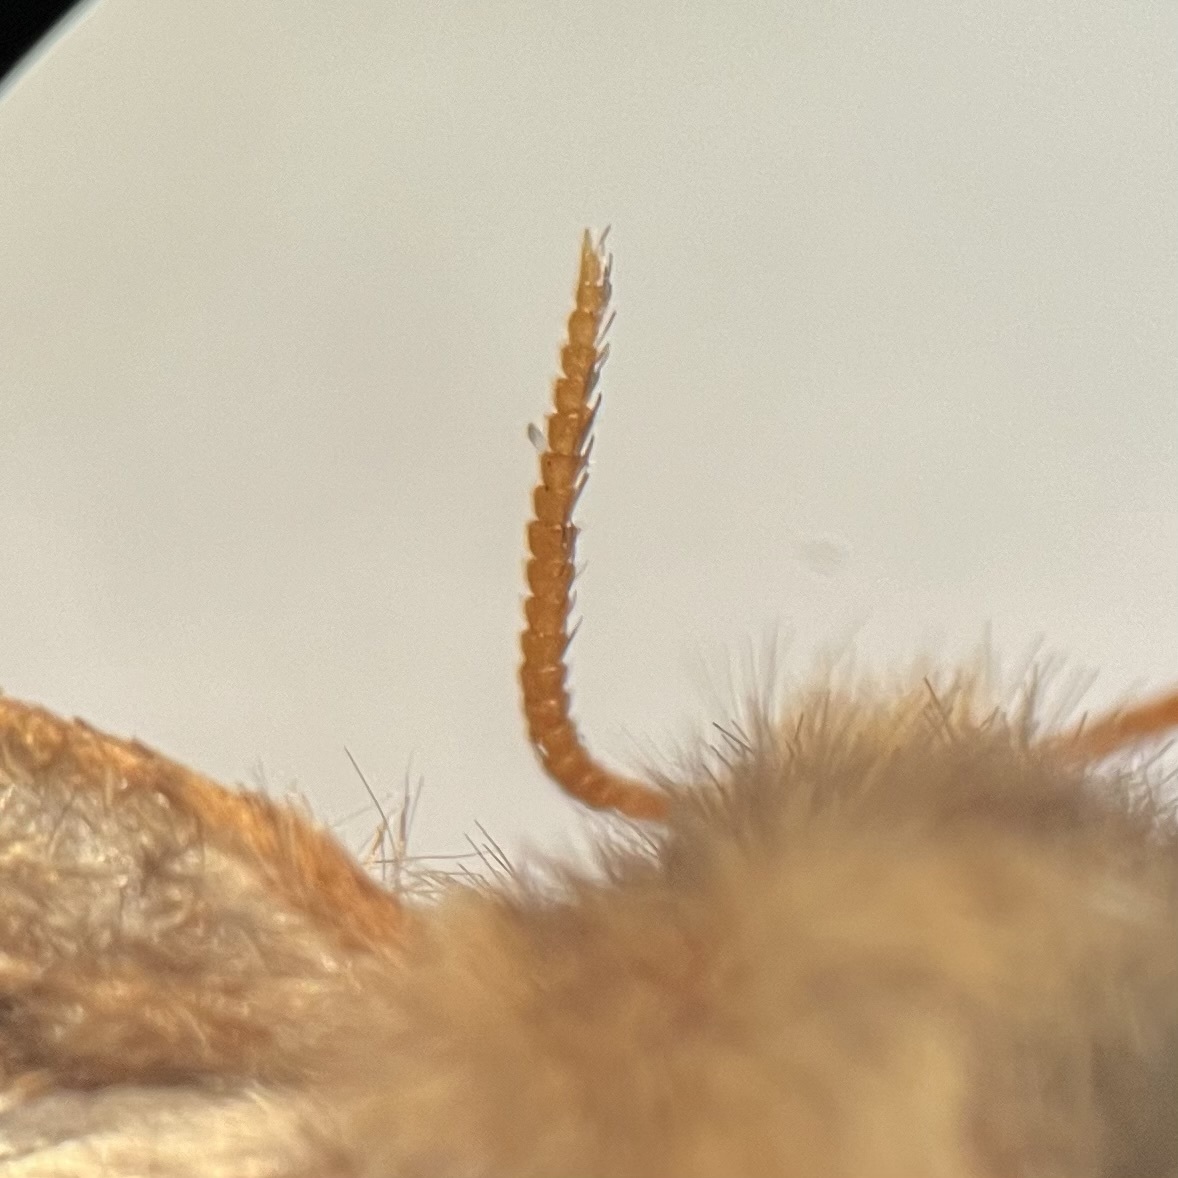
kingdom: Animalia
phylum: Arthropoda
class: Insecta
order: Lepidoptera
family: Hepialidae
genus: Korscheltellus
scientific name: Korscheltellus lupulina
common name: Common swift
